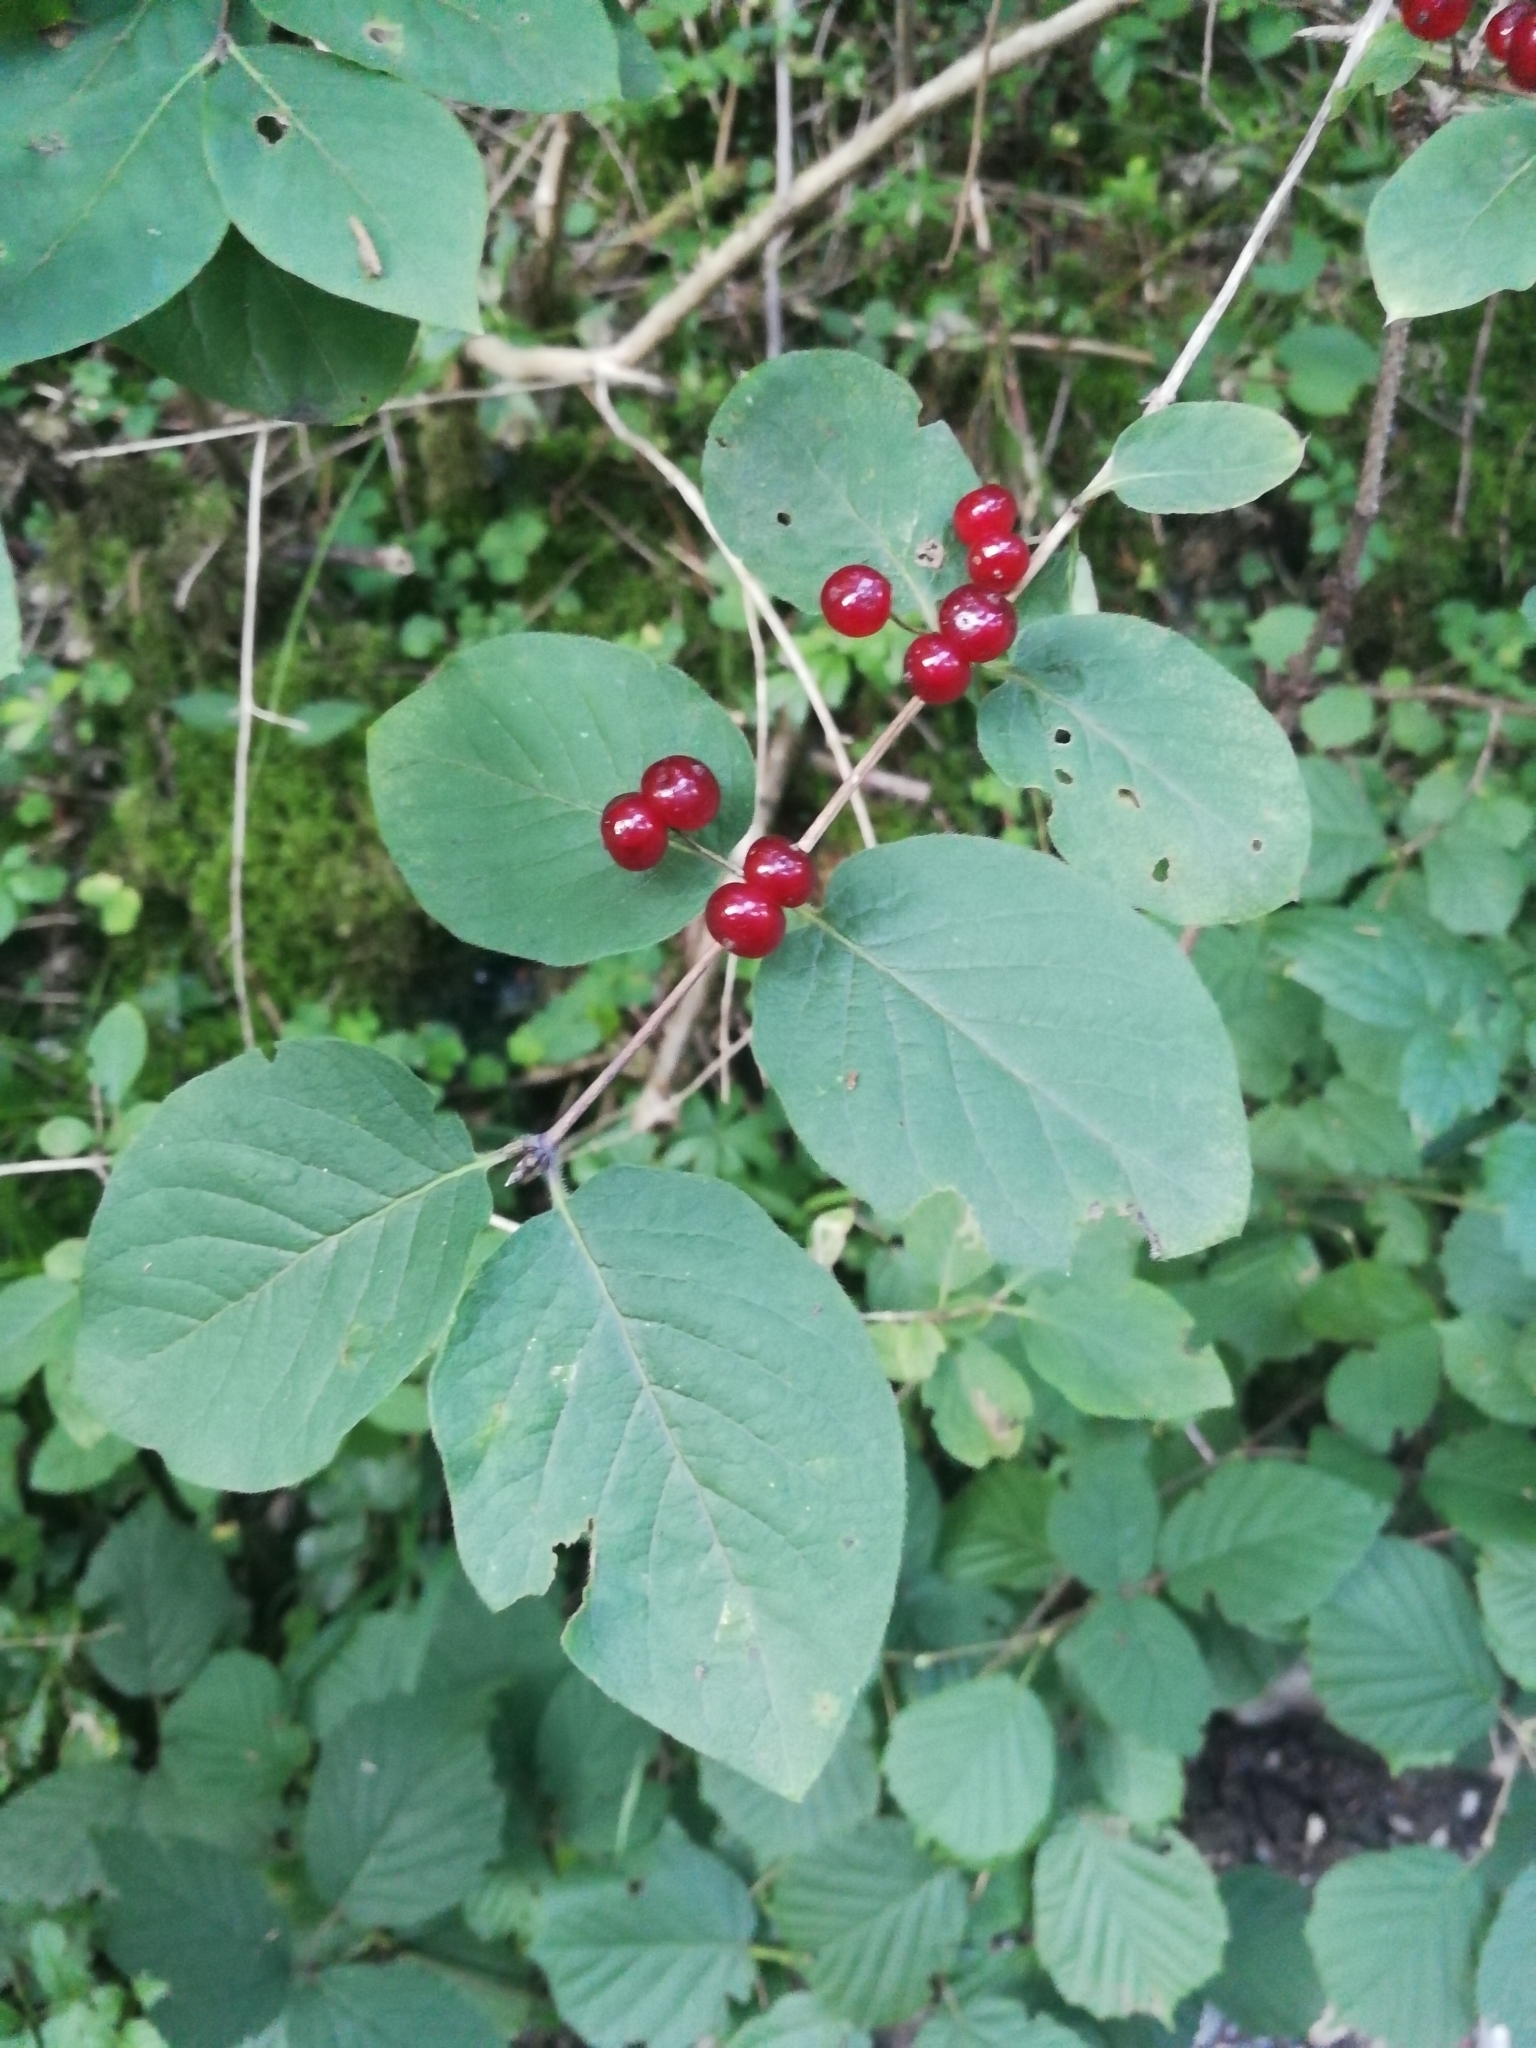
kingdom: Plantae
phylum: Tracheophyta
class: Magnoliopsida
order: Dipsacales
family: Caprifoliaceae
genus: Lonicera
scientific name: Lonicera xylosteum
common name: Fly honeysuckle
